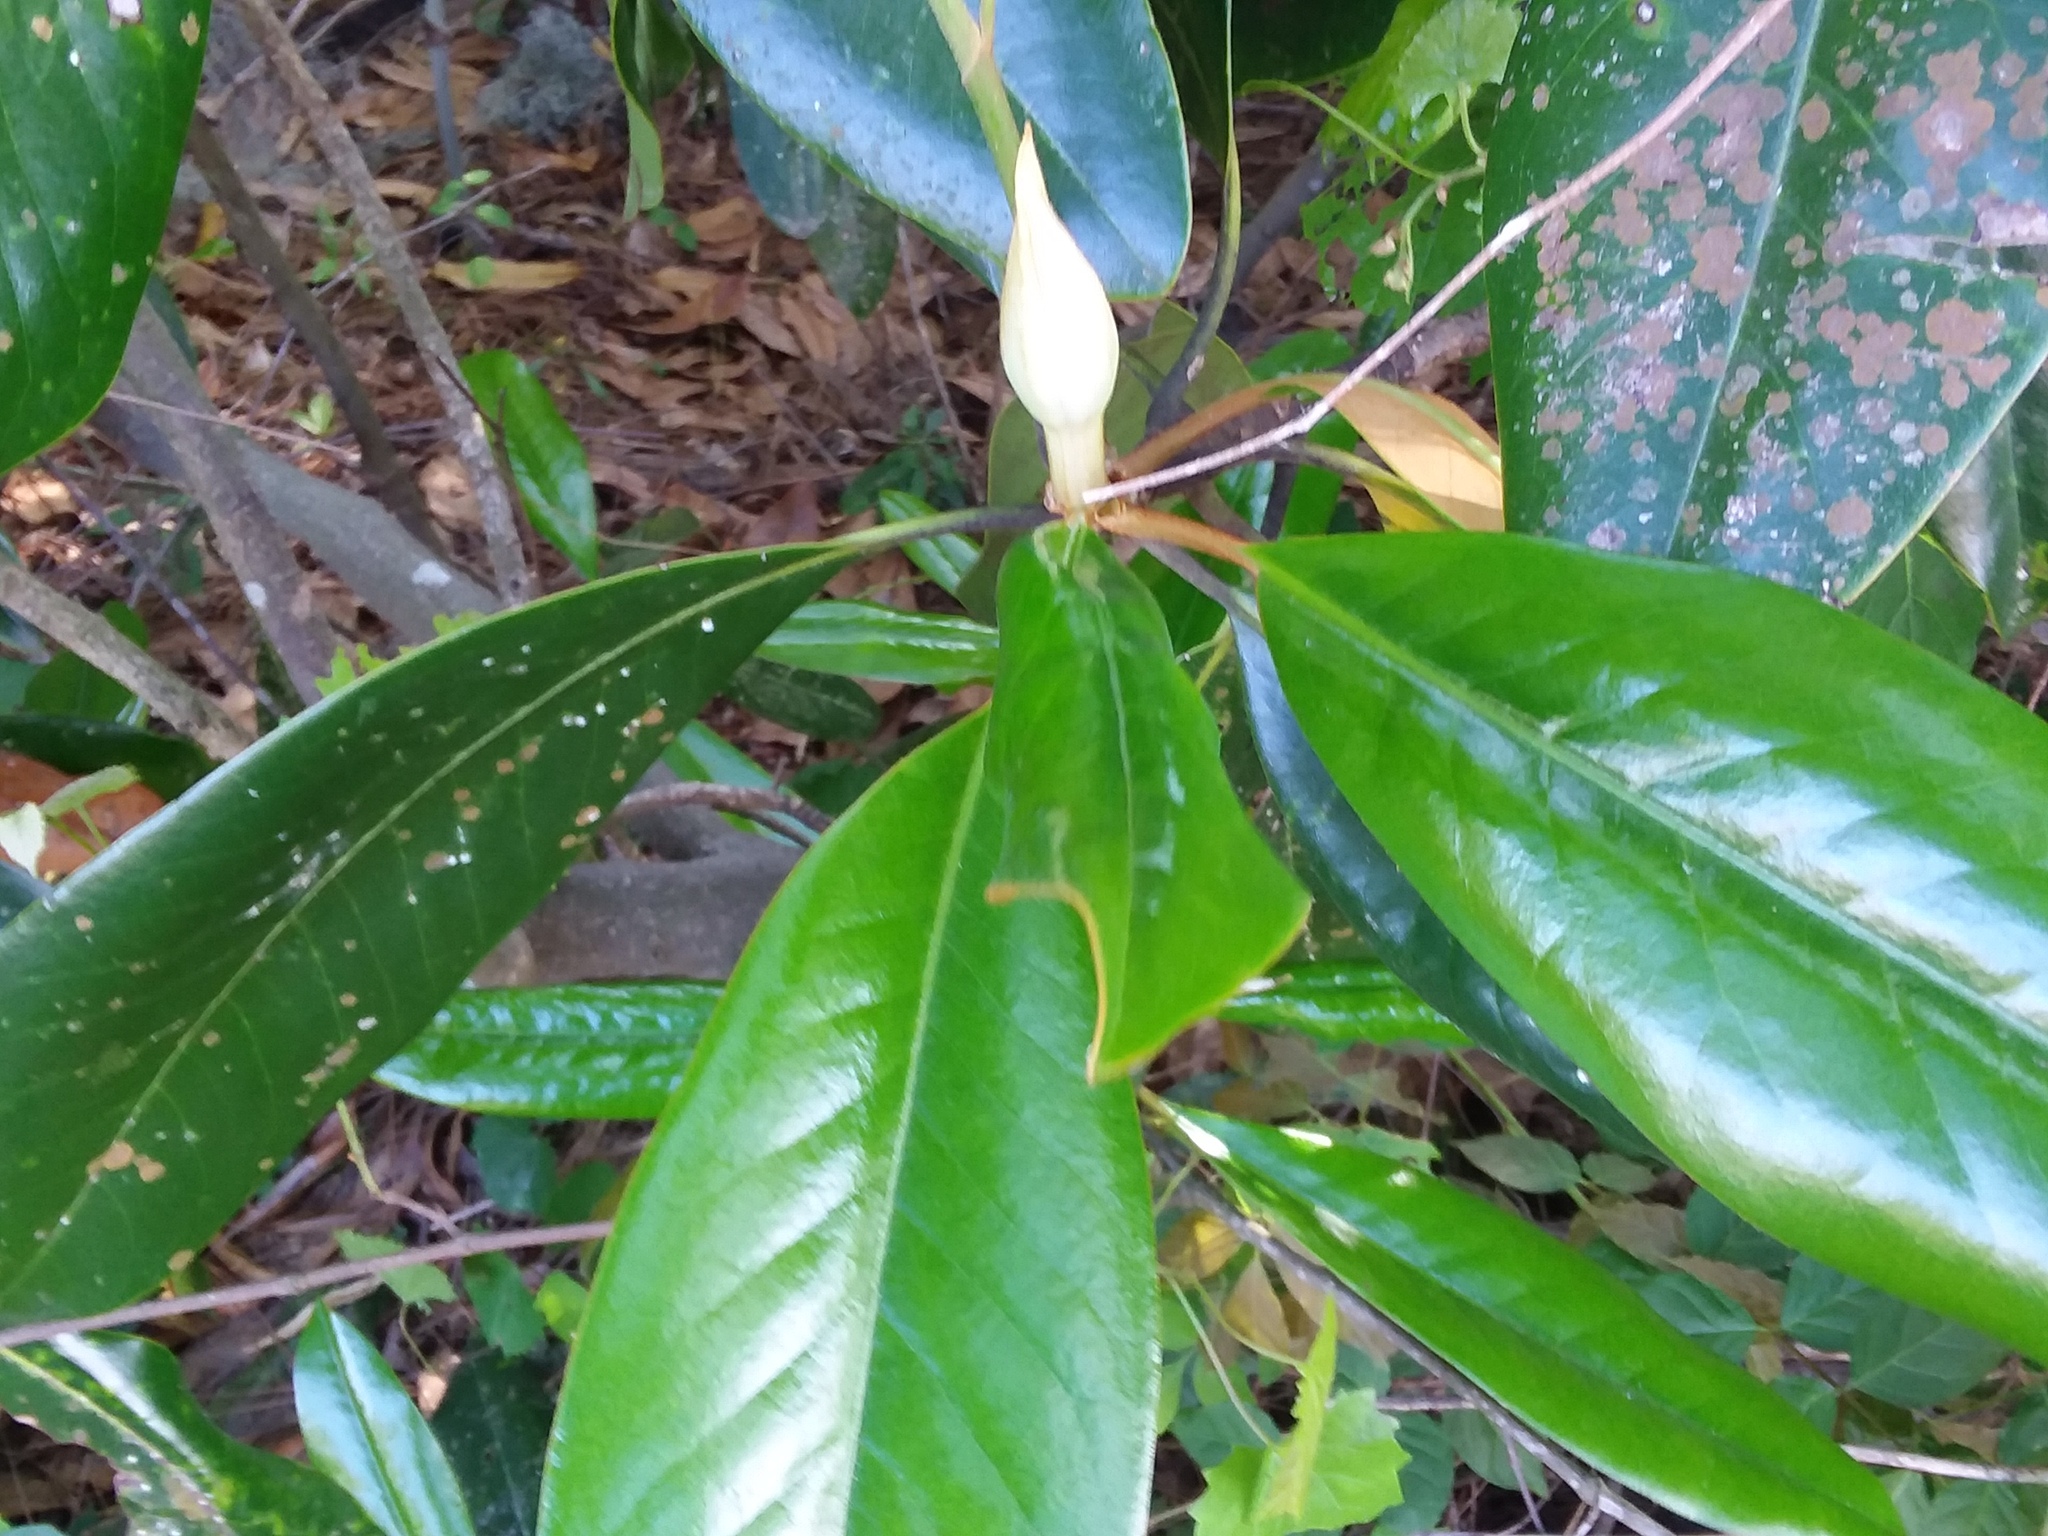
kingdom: Plantae
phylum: Tracheophyta
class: Magnoliopsida
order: Magnoliales
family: Magnoliaceae
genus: Magnolia
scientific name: Magnolia grandiflora
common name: Southern magnolia
